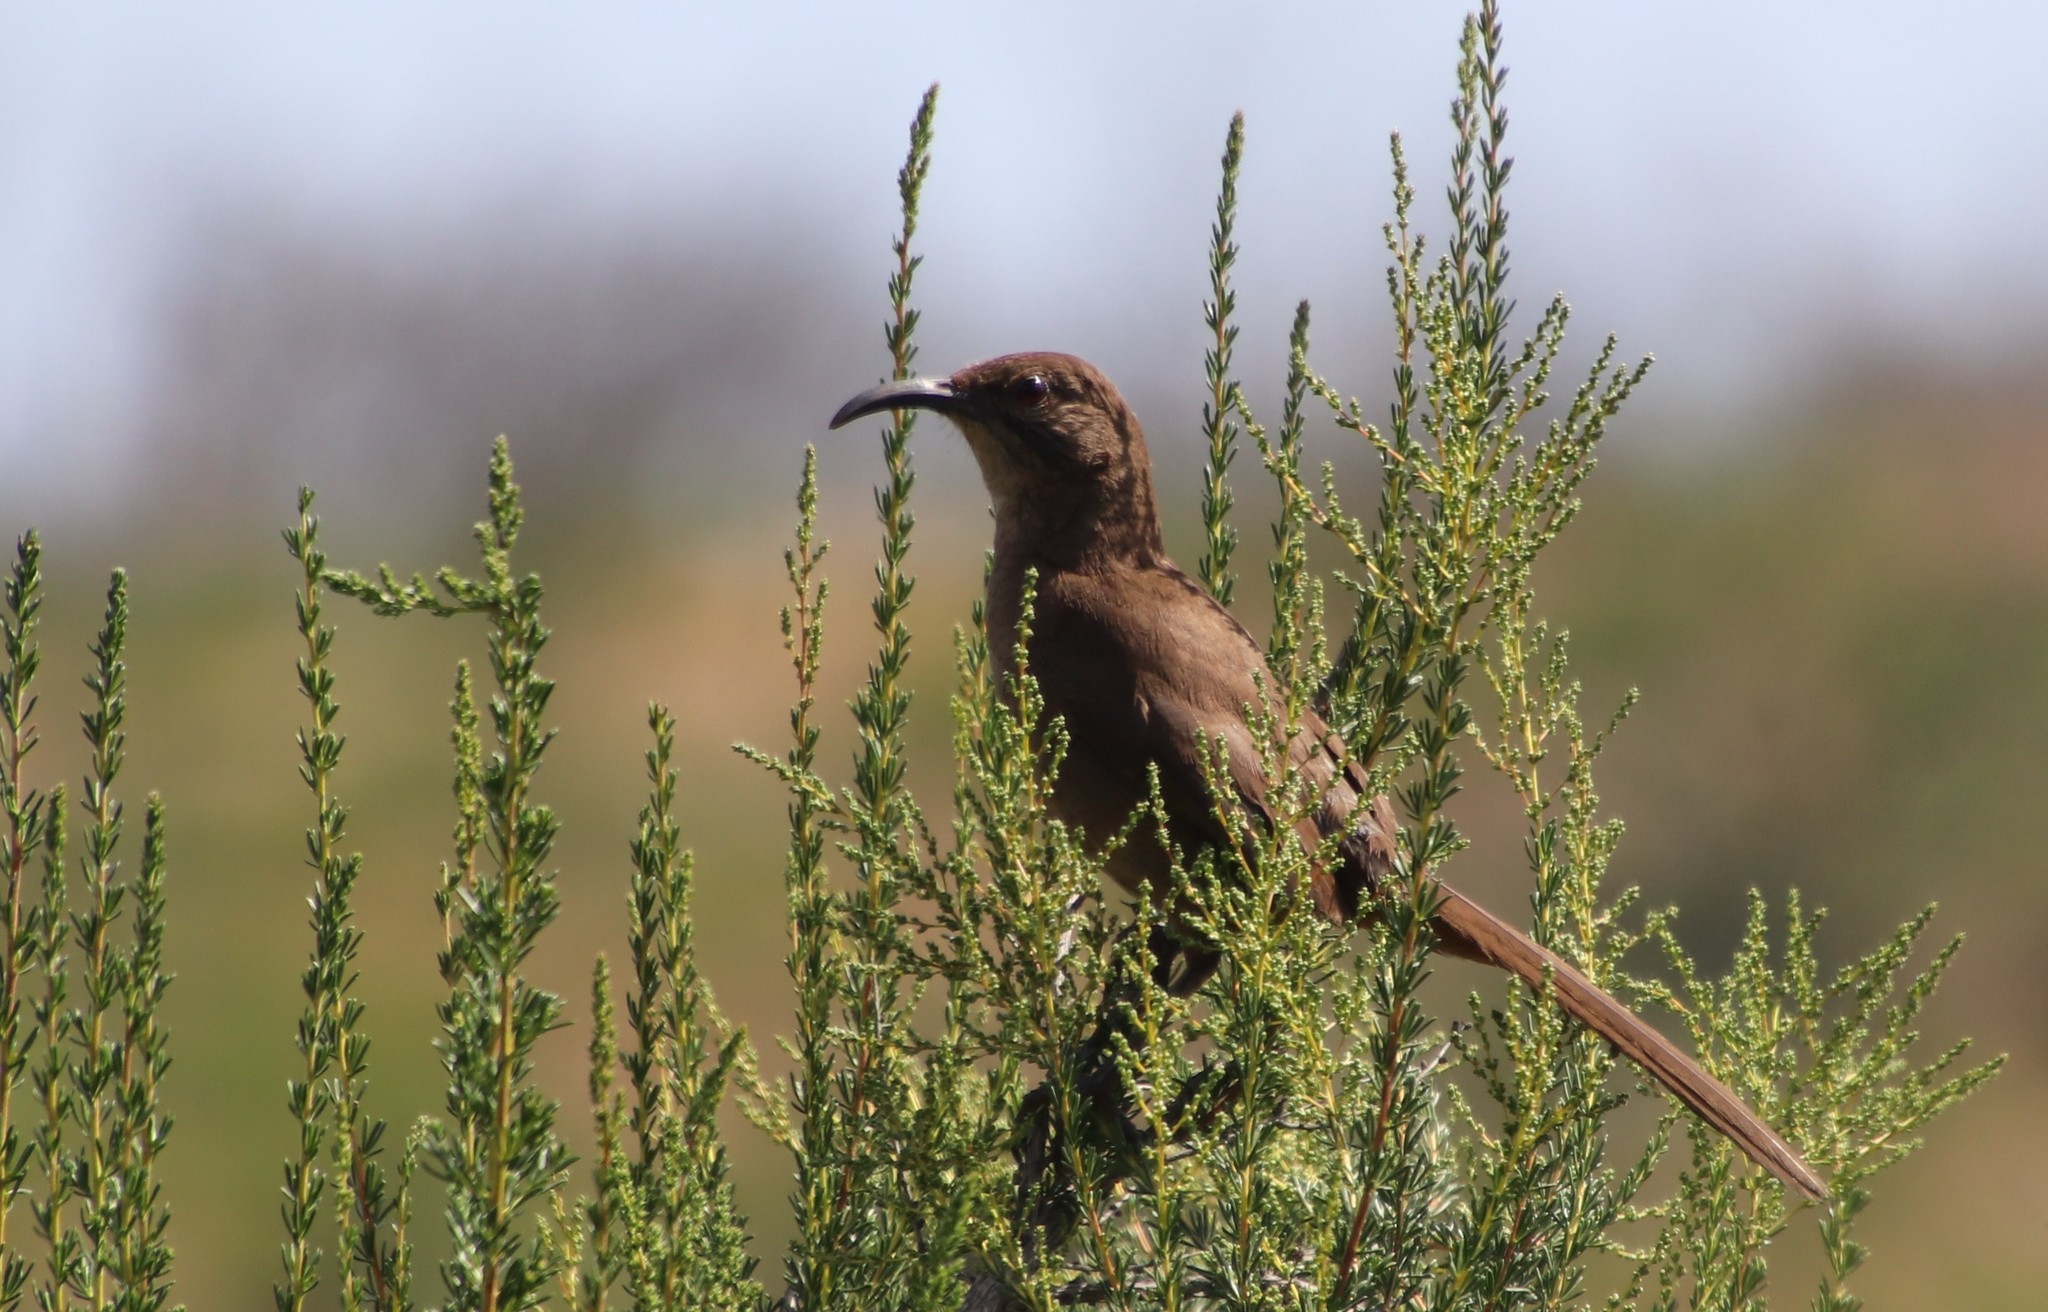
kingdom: Animalia
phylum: Chordata
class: Aves
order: Passeriformes
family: Mimidae
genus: Toxostoma
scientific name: Toxostoma redivivum
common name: California thrasher
